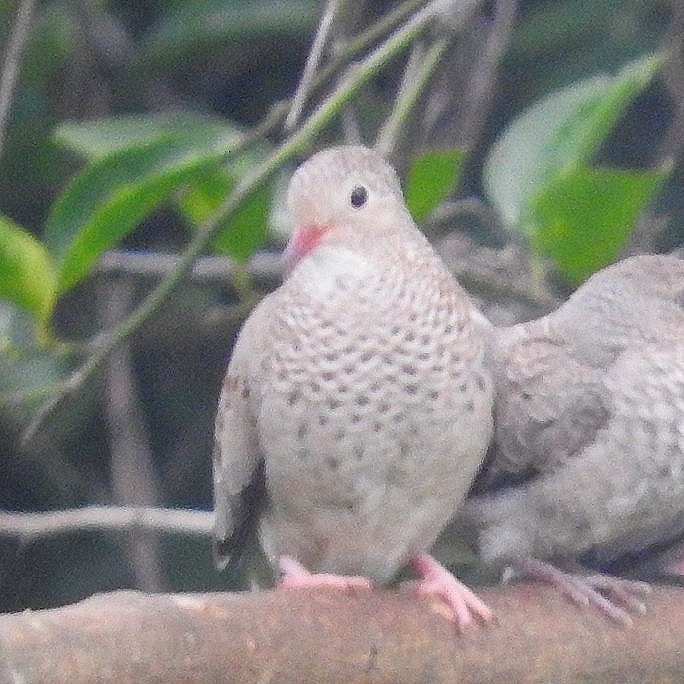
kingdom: Animalia
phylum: Chordata
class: Aves
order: Columbiformes
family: Columbidae
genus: Columbina
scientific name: Columbina passerina
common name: Common ground-dove
